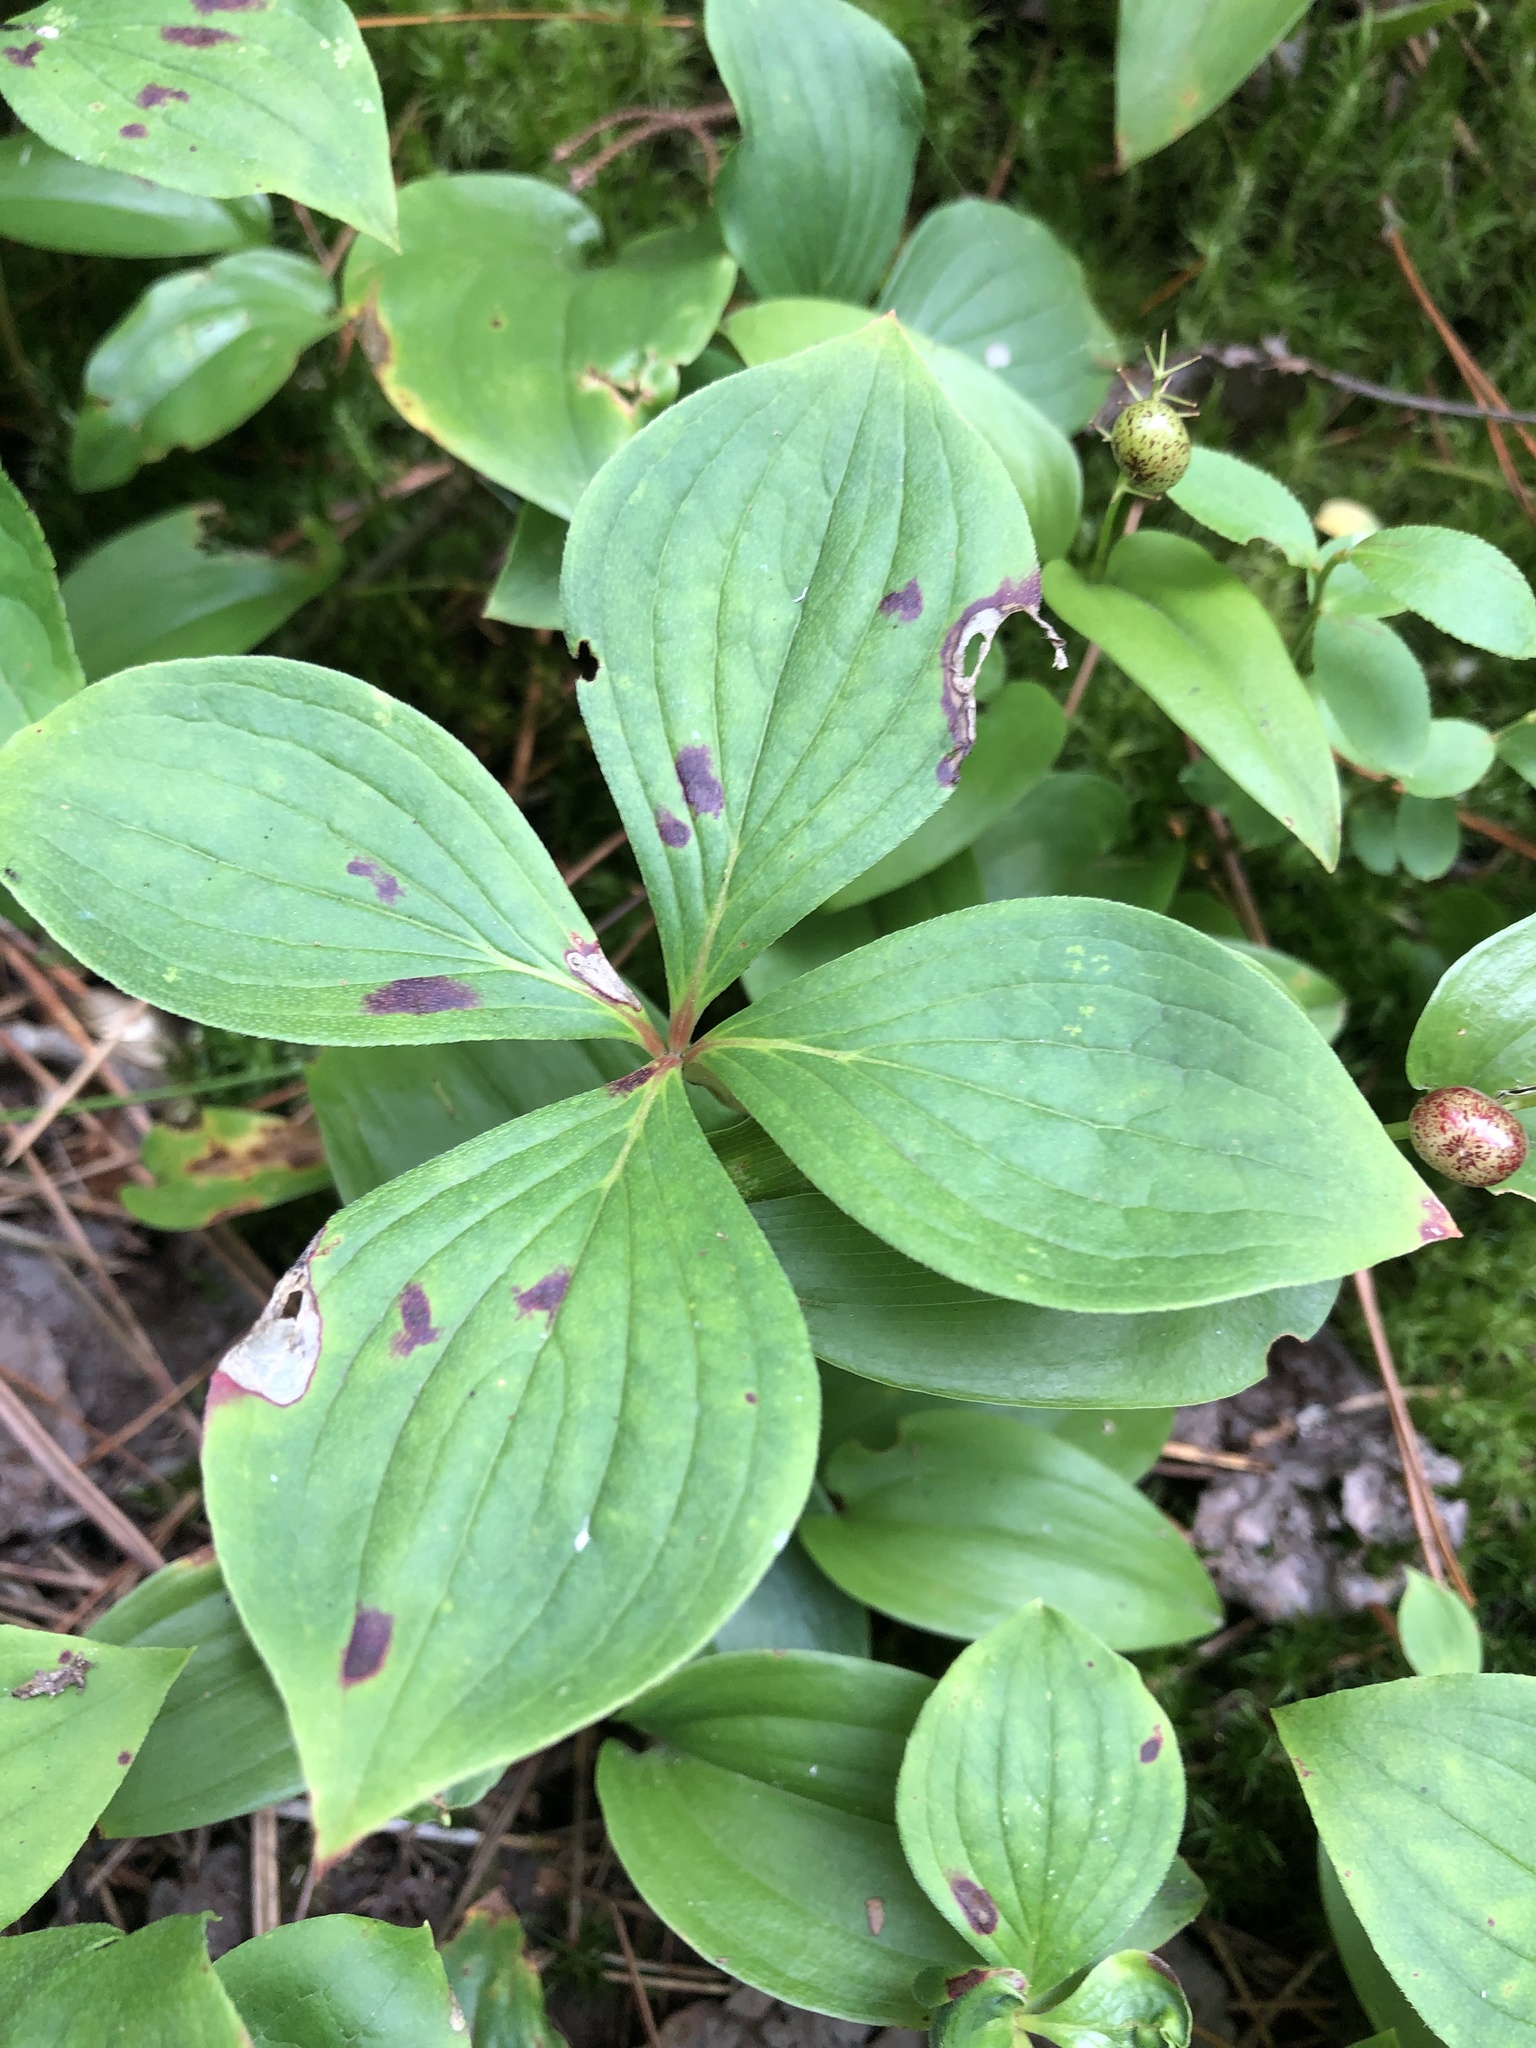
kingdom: Plantae
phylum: Tracheophyta
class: Magnoliopsida
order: Cornales
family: Cornaceae
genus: Cornus
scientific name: Cornus canadensis
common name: Creeping dogwood
